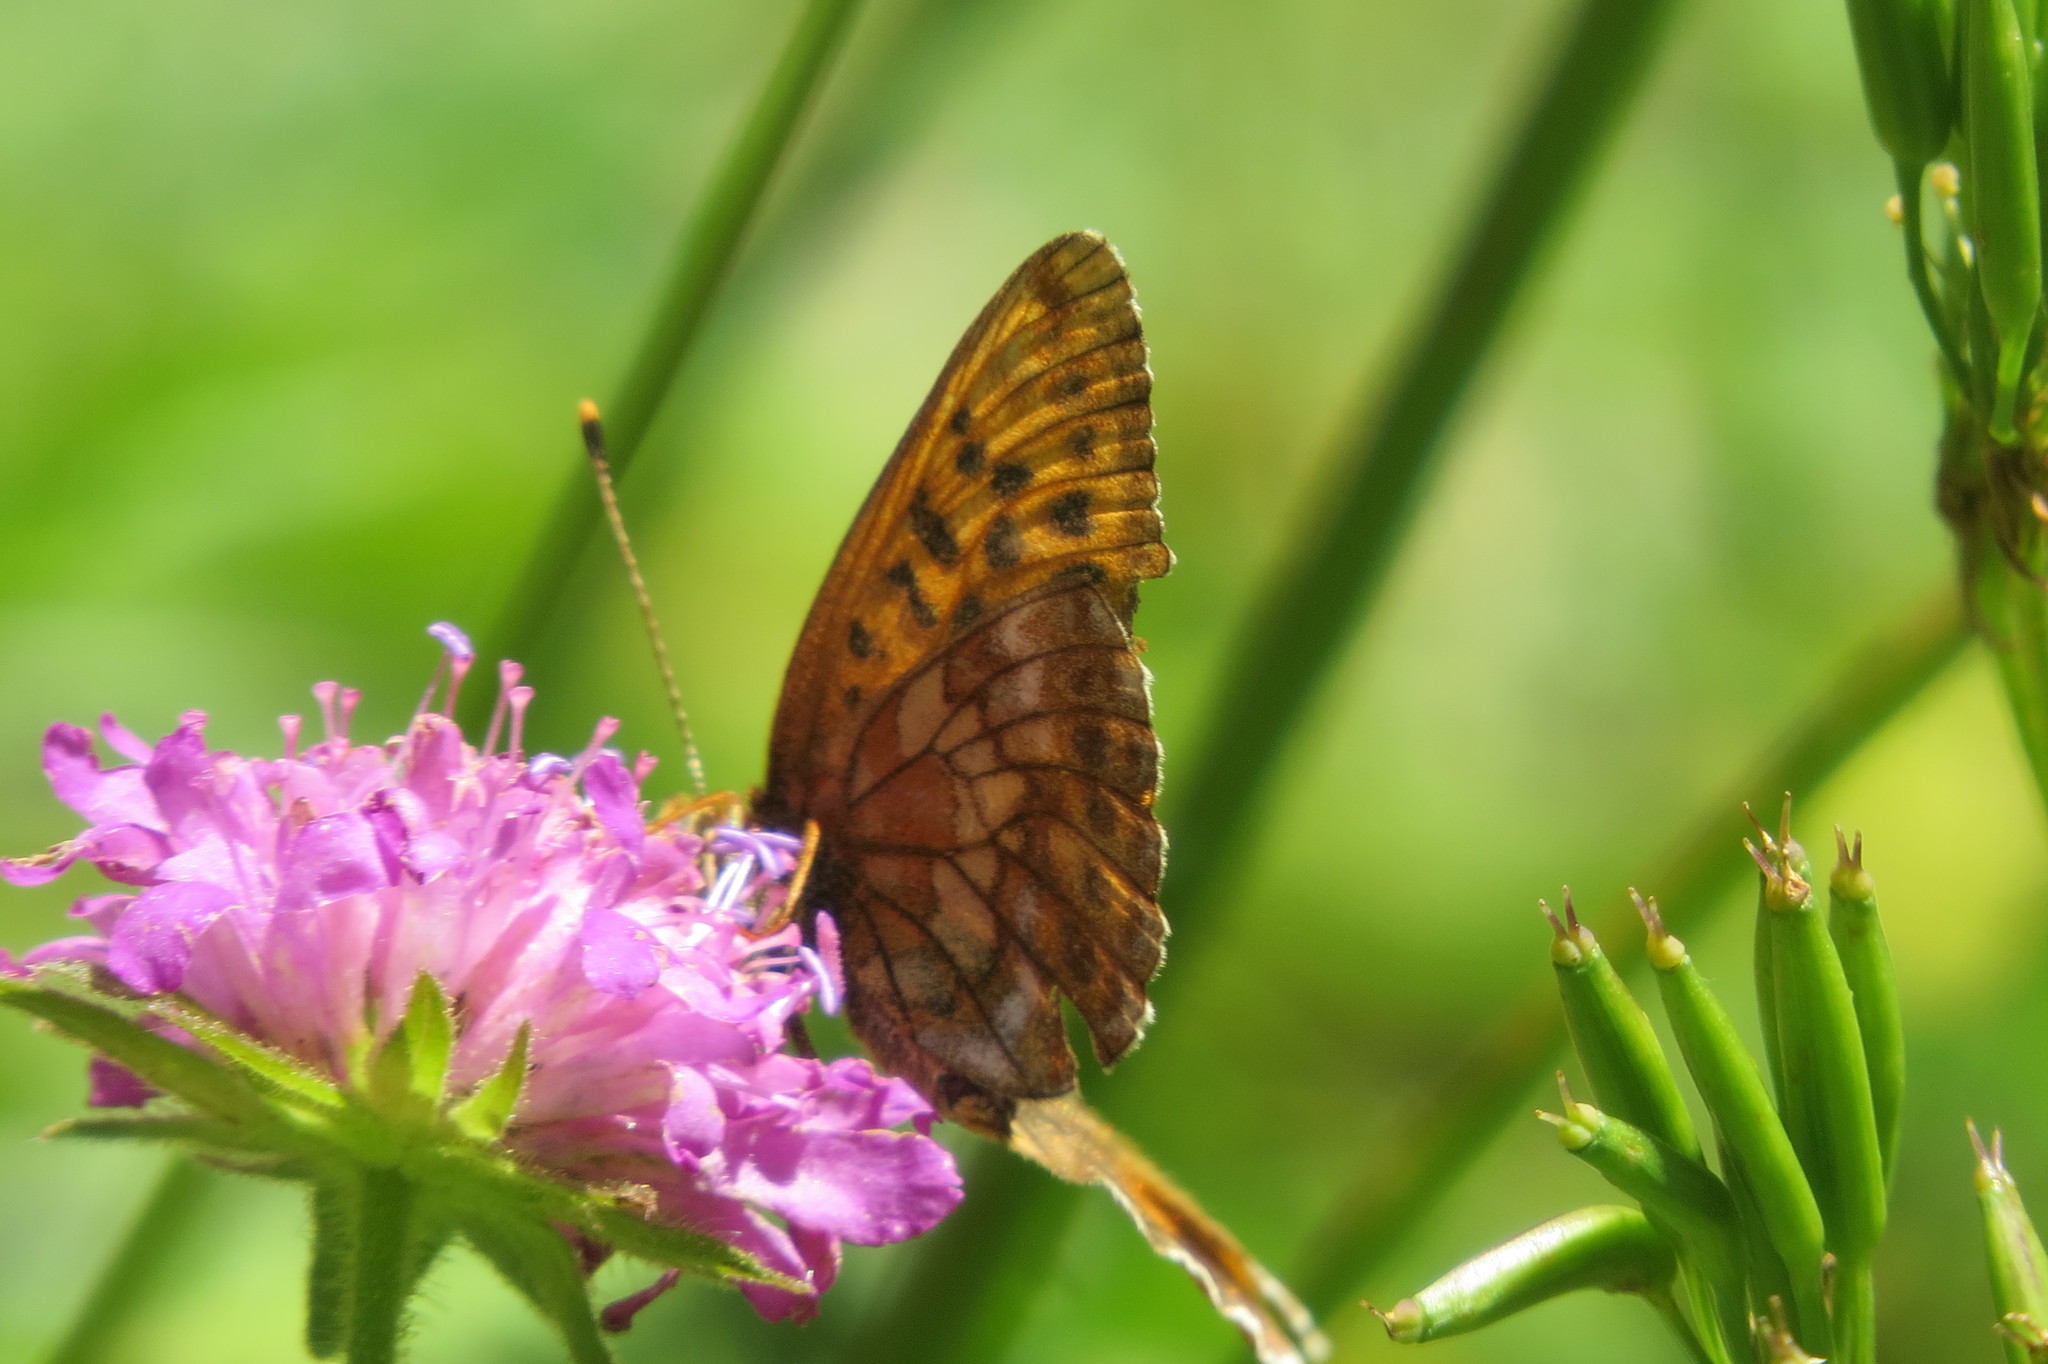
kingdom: Animalia
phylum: Arthropoda
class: Insecta
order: Lepidoptera
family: Nymphalidae
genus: Boloria
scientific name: Boloria thore
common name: Thor's fritillary
